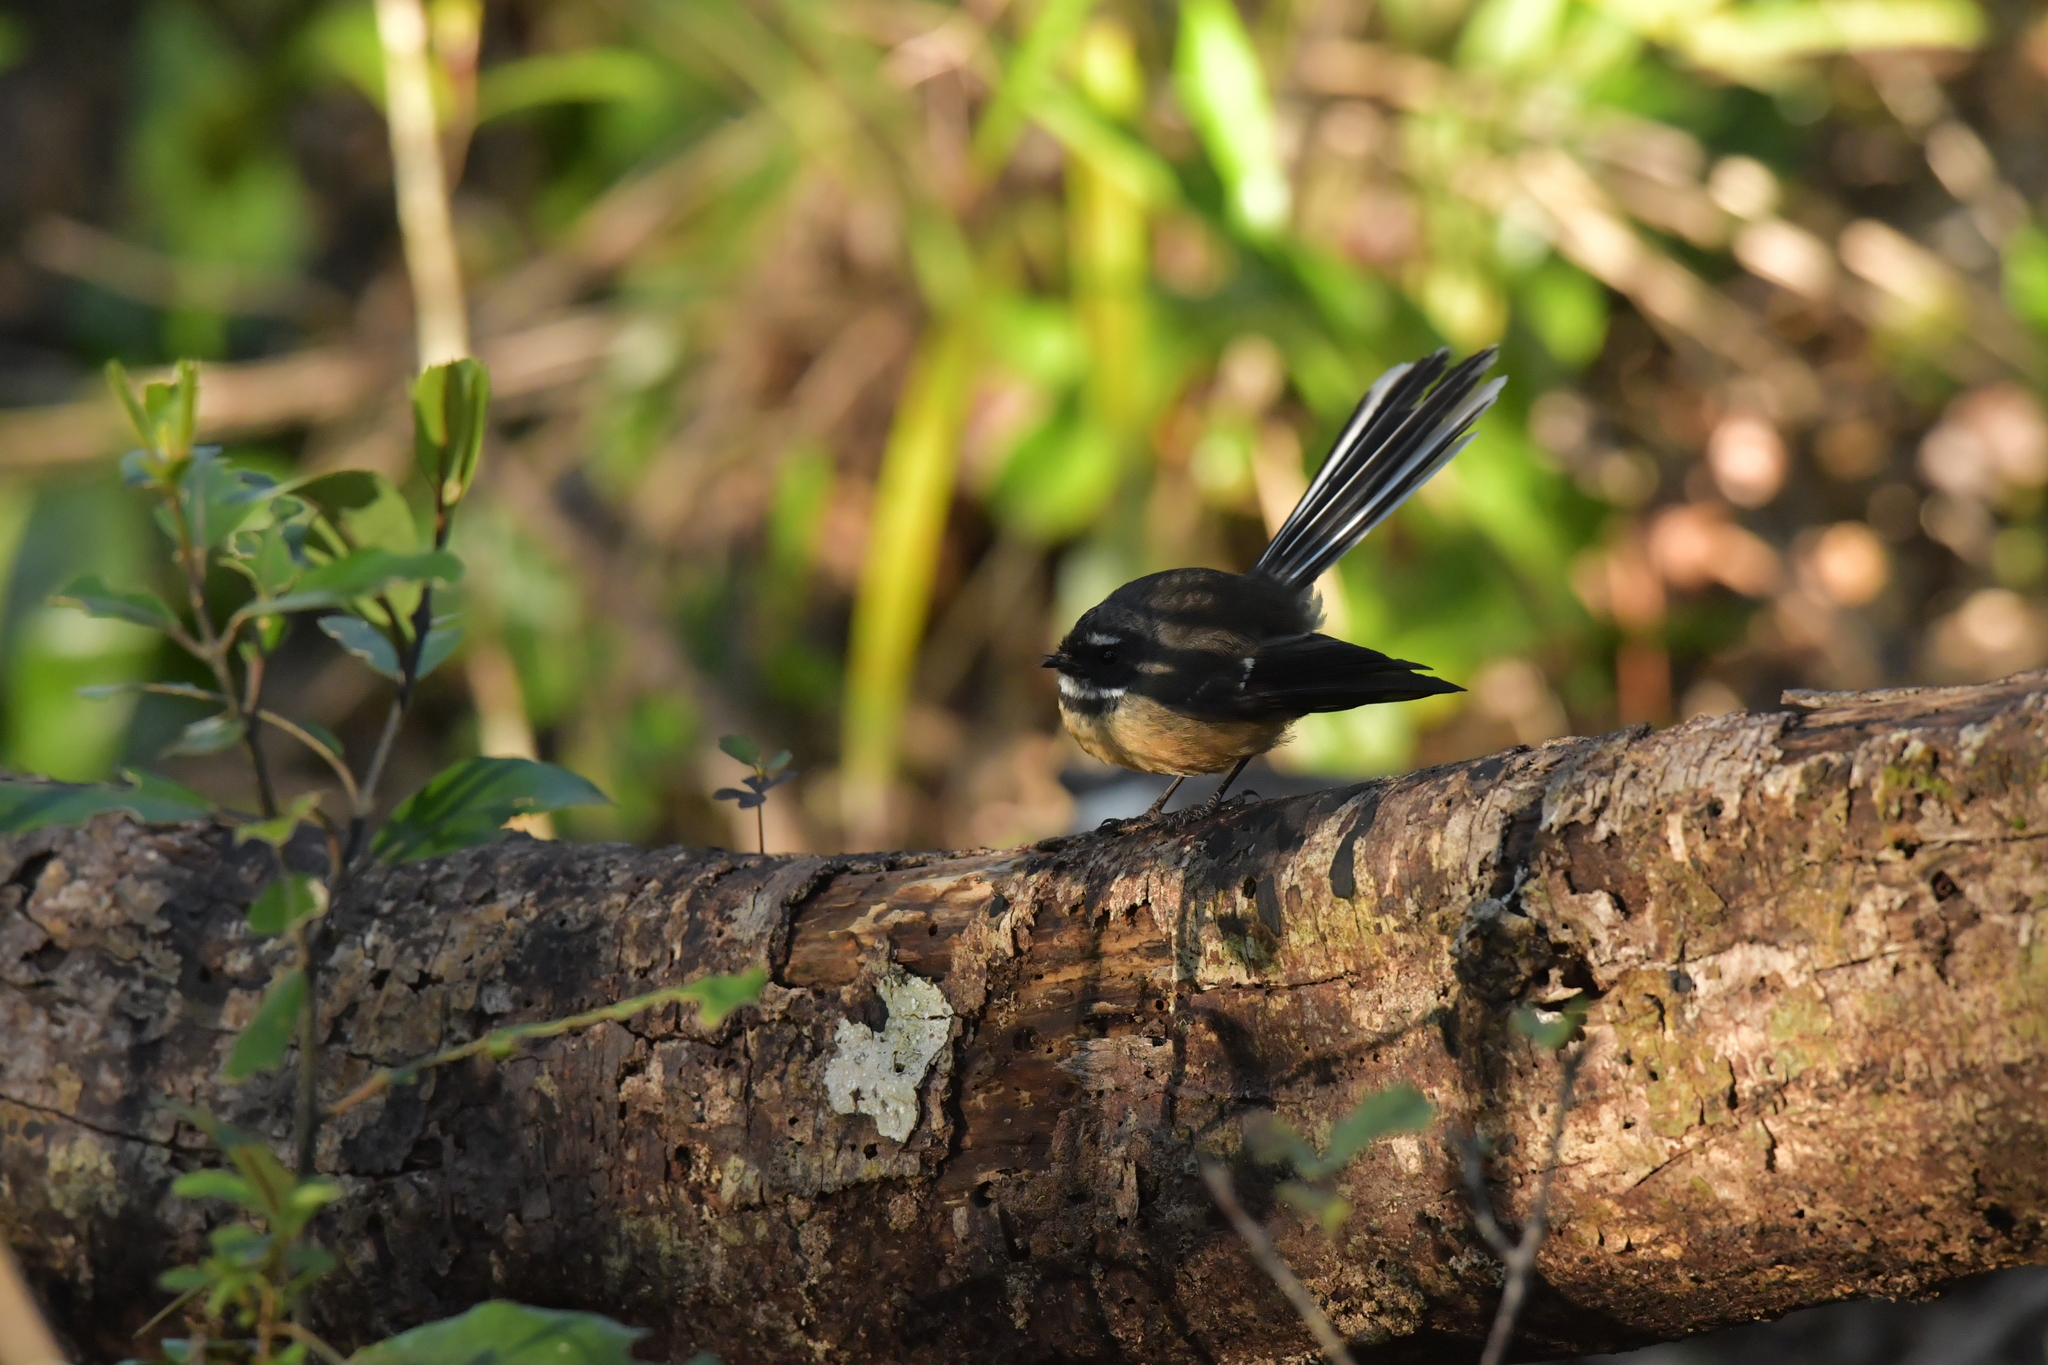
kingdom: Animalia
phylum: Chordata
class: Aves
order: Passeriformes
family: Rhipiduridae
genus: Rhipidura
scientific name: Rhipidura fuliginosa
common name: New zealand fantail
